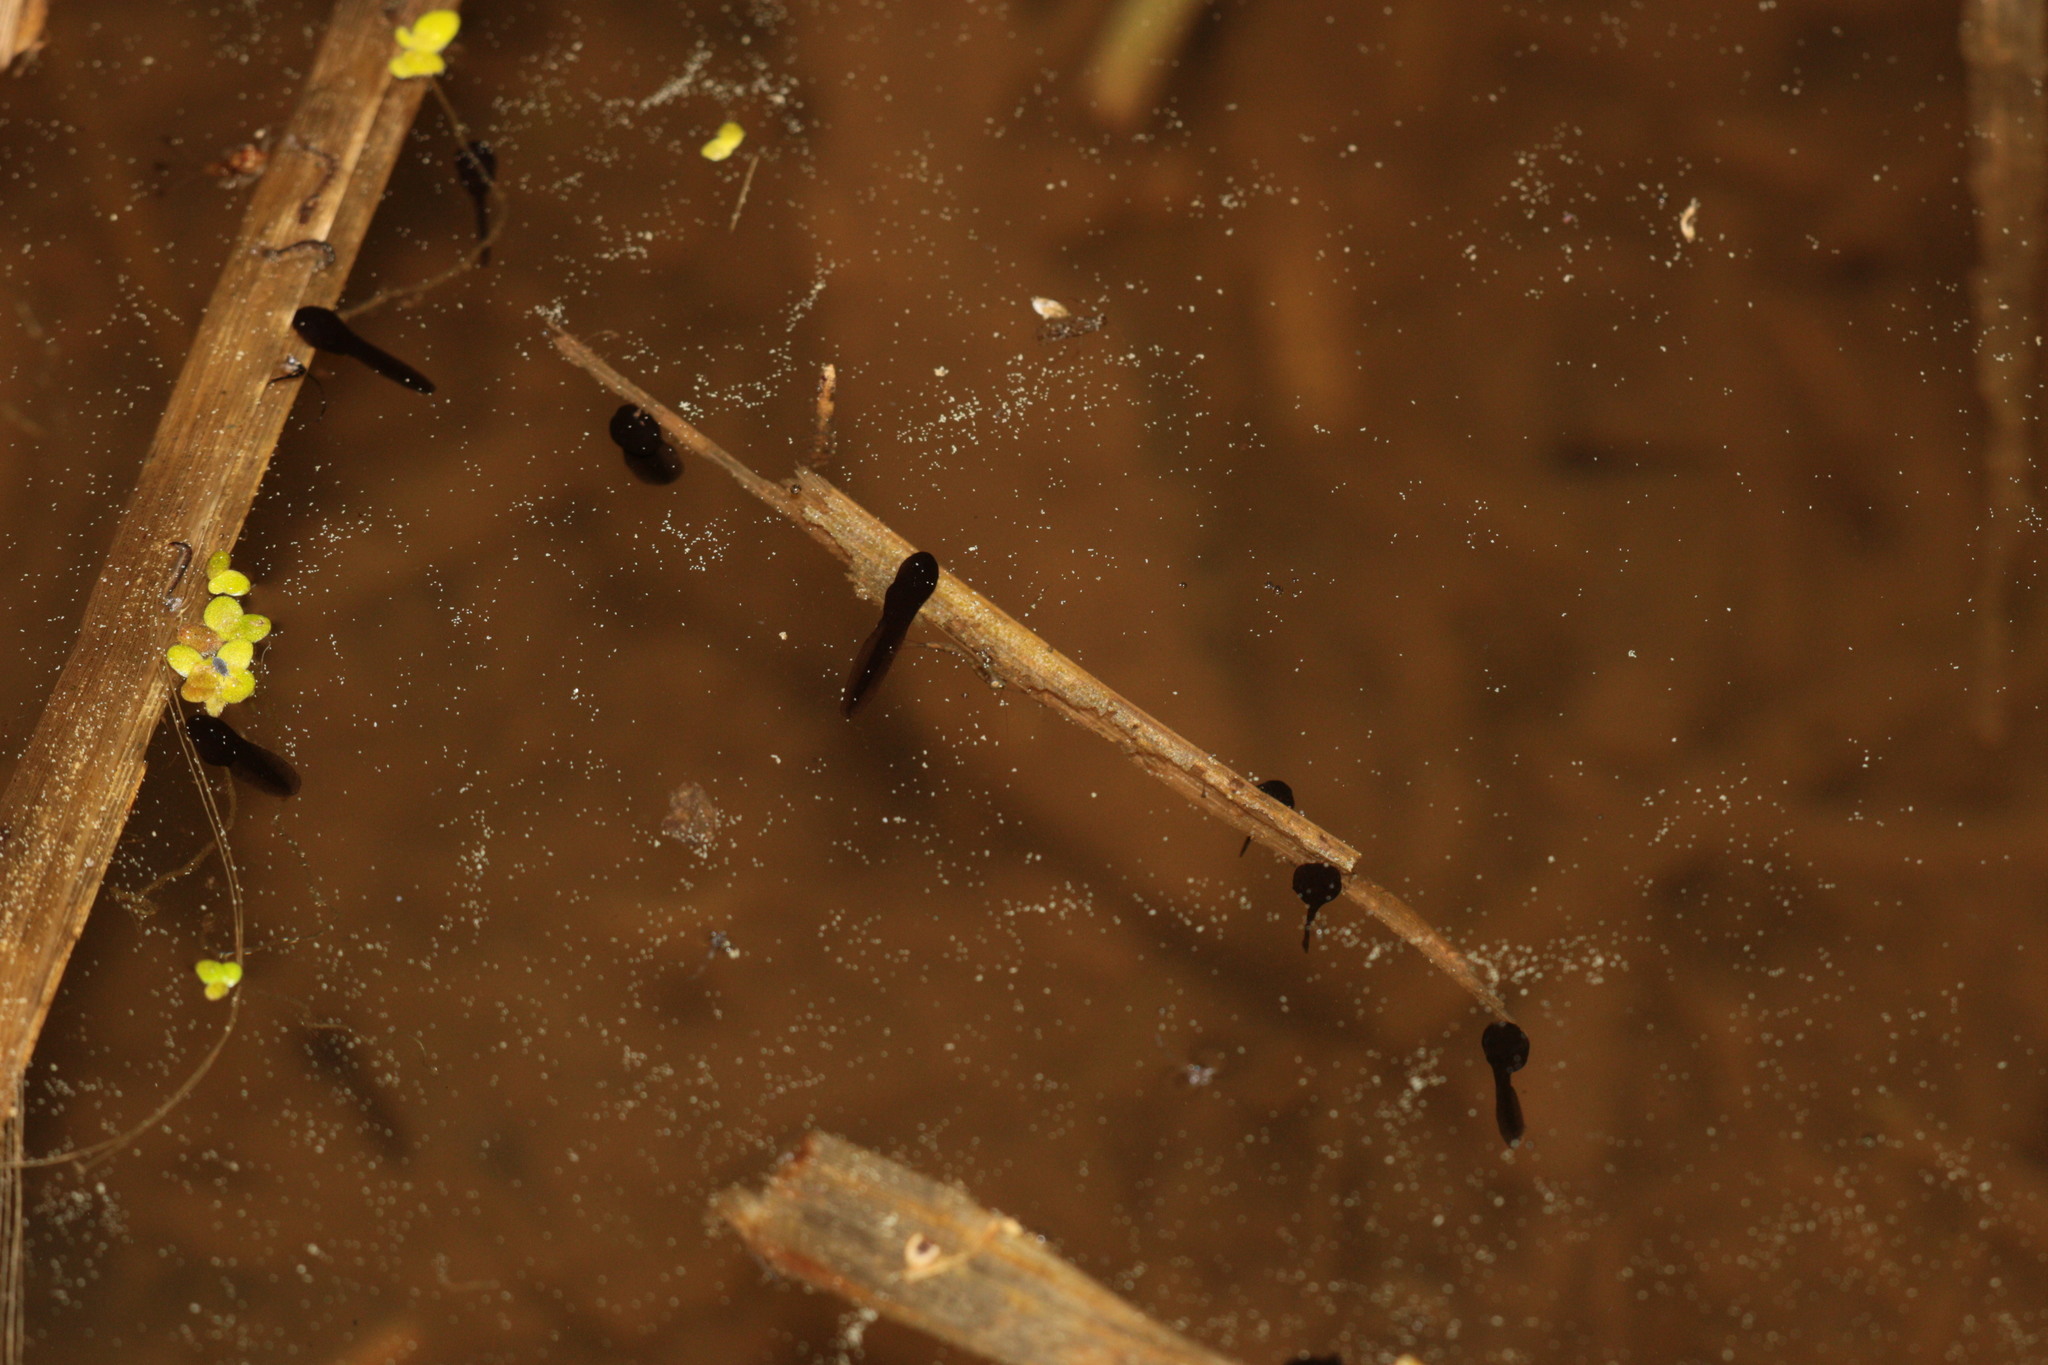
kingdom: Animalia
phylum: Chordata
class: Amphibia
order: Anura
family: Bufonidae
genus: Bufo
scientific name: Bufo bufo
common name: Common toad
